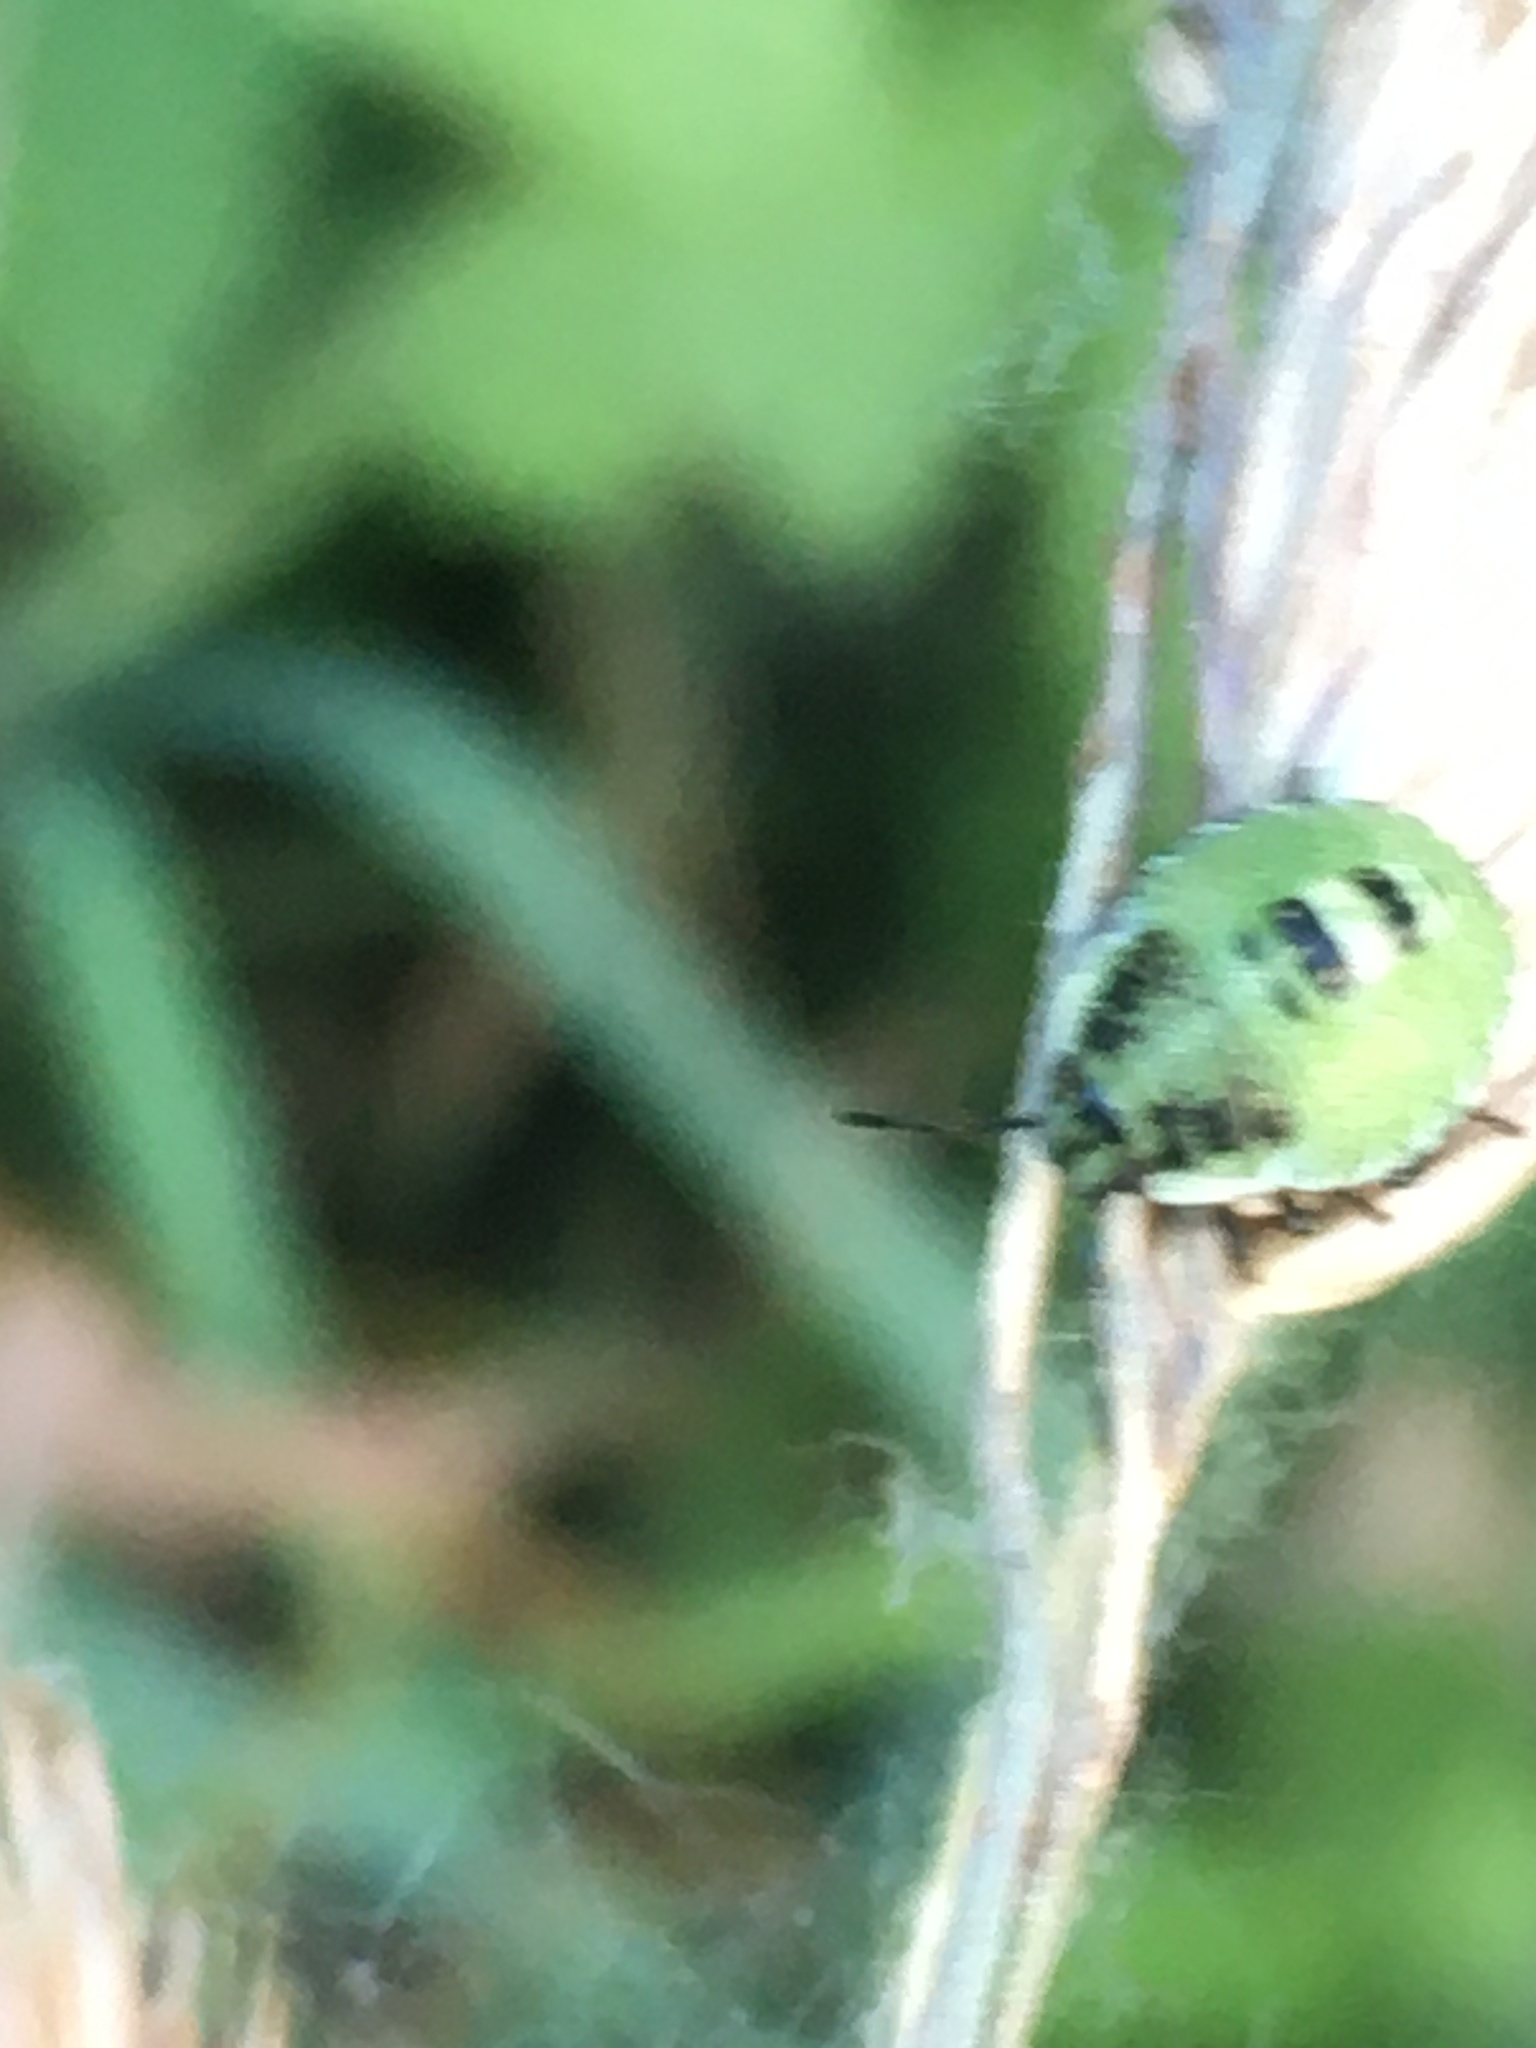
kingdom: Animalia
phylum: Arthropoda
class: Insecta
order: Hemiptera
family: Pentatomidae
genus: Palomena
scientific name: Palomena prasina
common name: Green shieldbug
